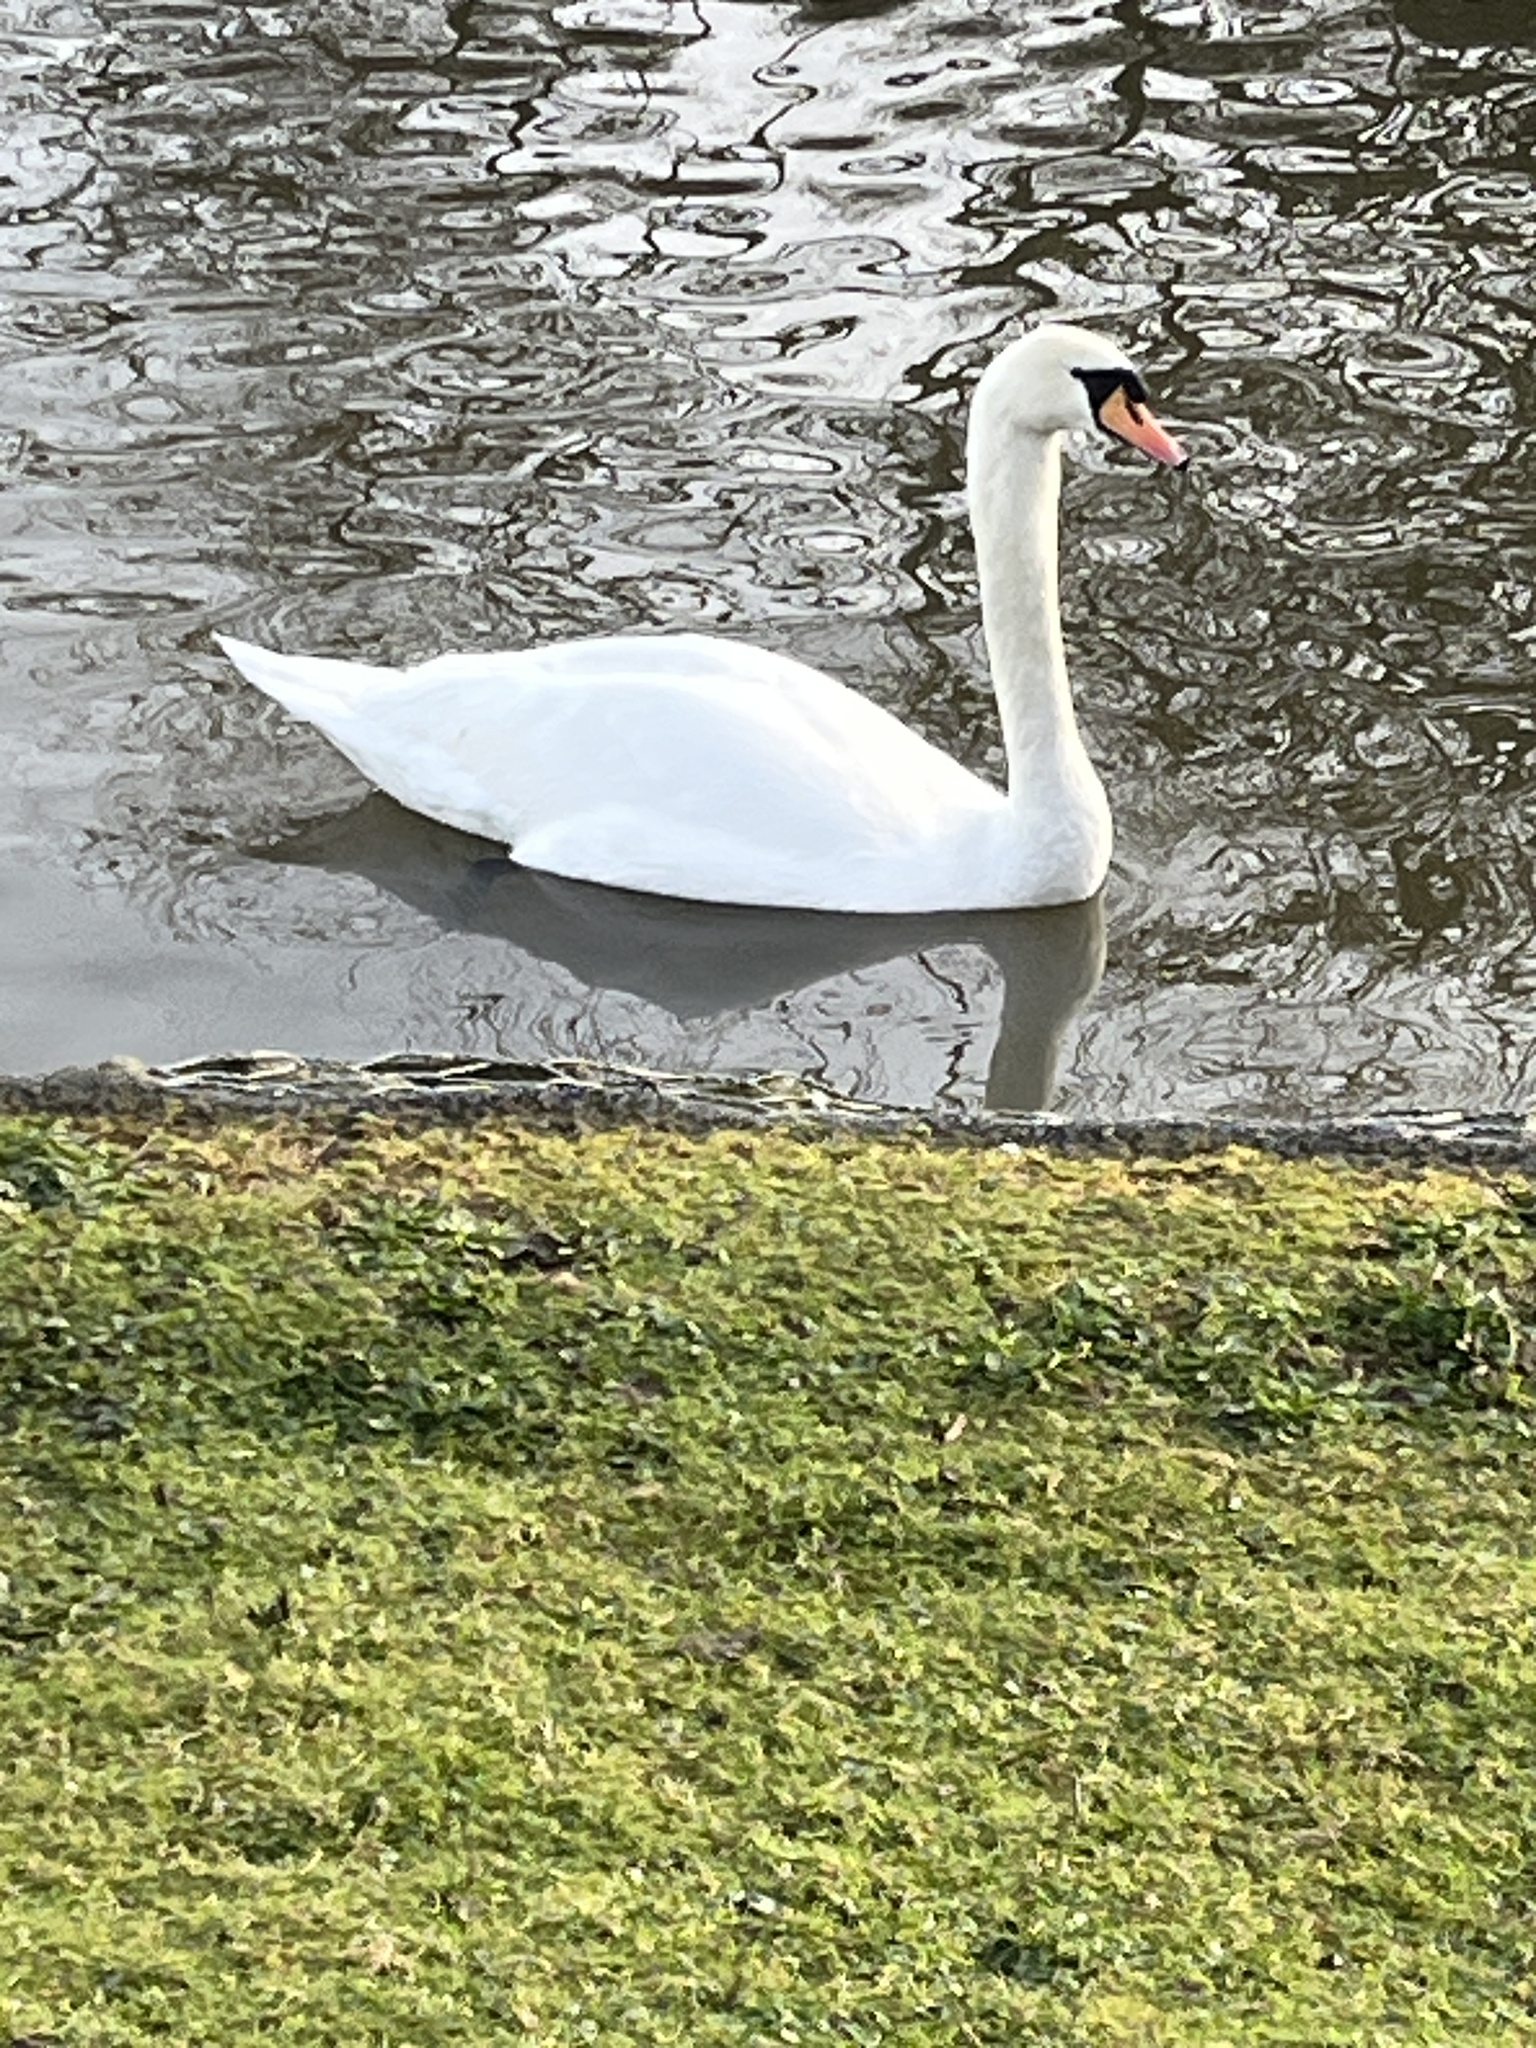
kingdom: Animalia
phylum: Chordata
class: Aves
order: Anseriformes
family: Anatidae
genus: Cygnus
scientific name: Cygnus olor
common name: Mute swan
